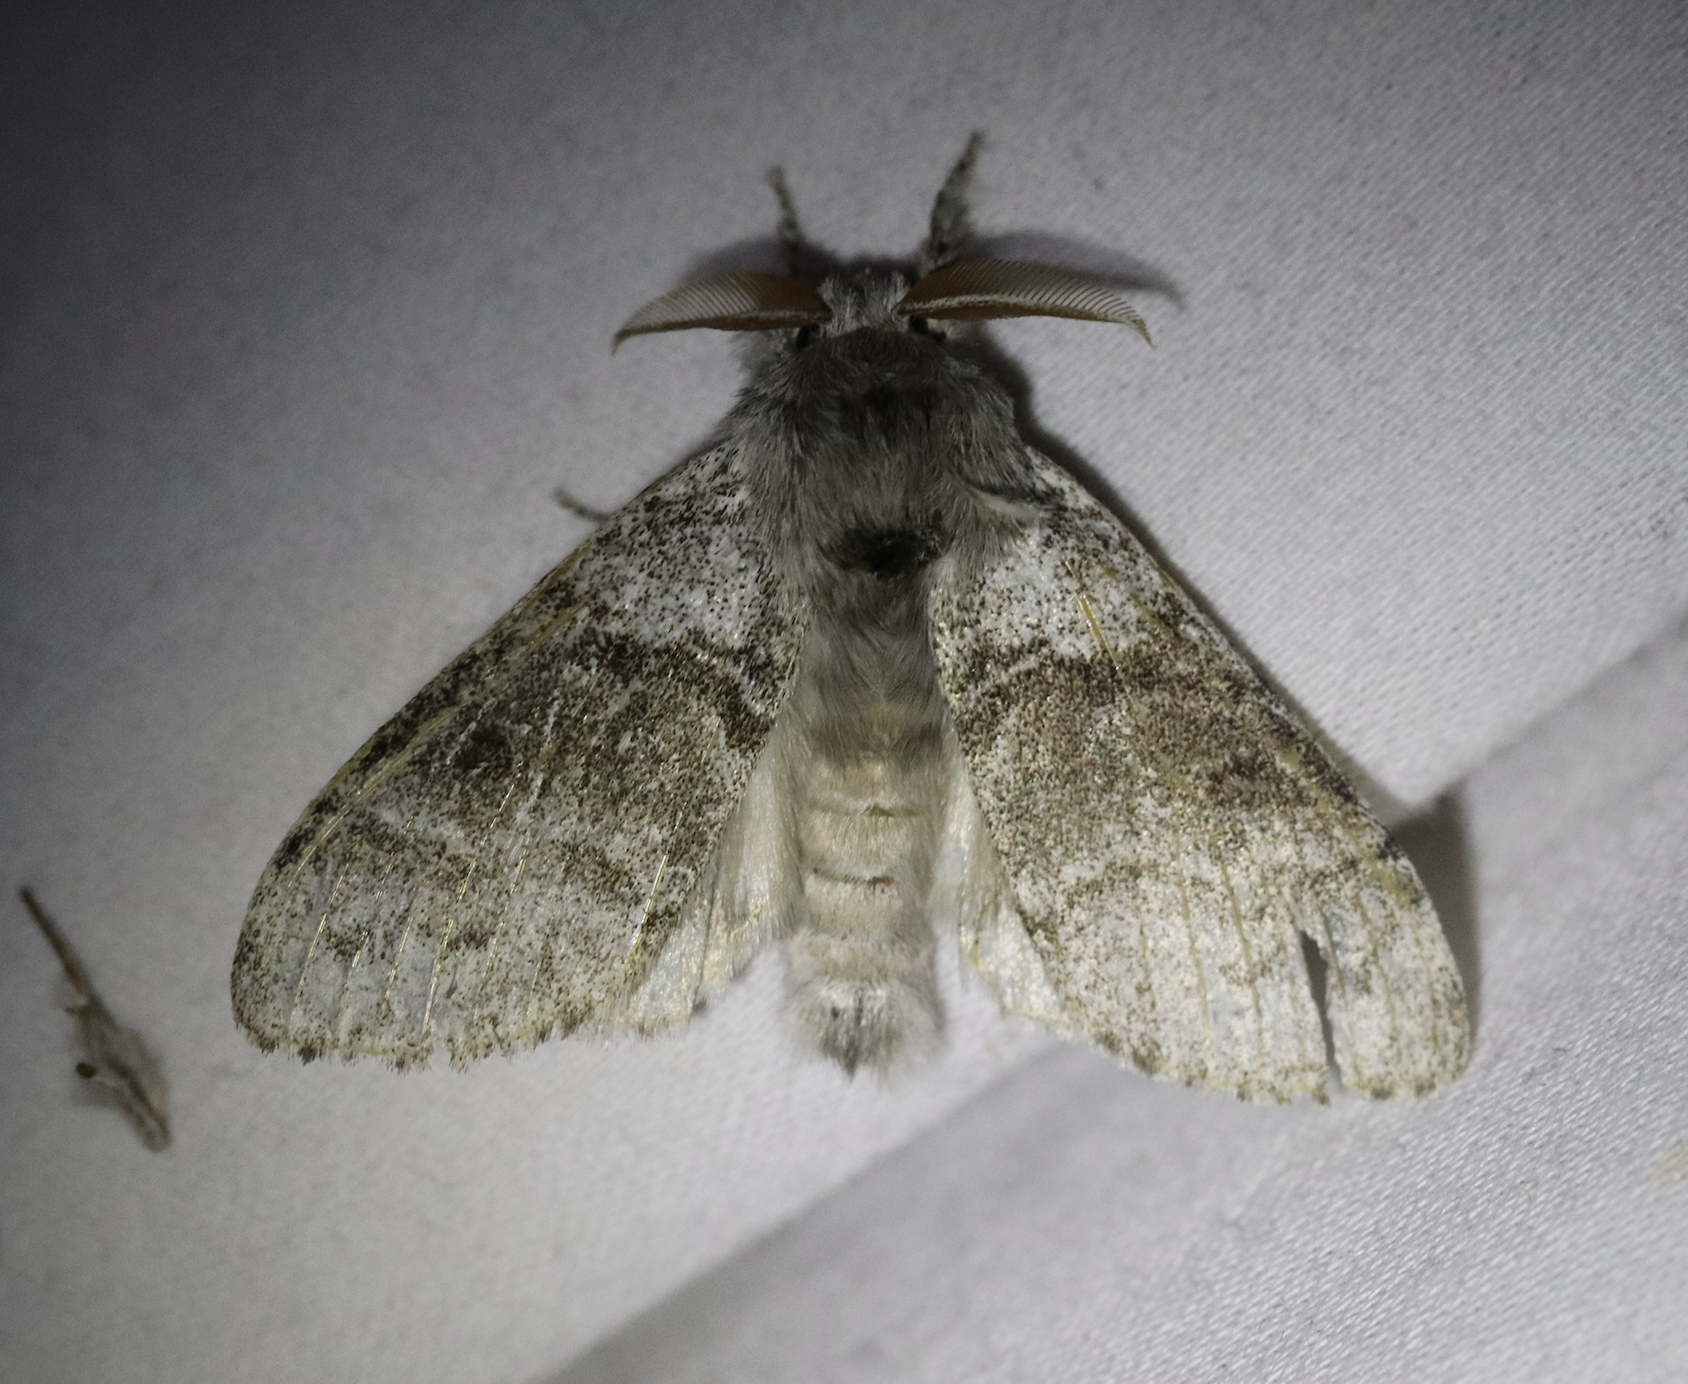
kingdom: Animalia
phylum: Arthropoda
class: Insecta
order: Lepidoptera
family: Erebidae
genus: Calliteara
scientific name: Calliteara pudibunda
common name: Pale tussock
